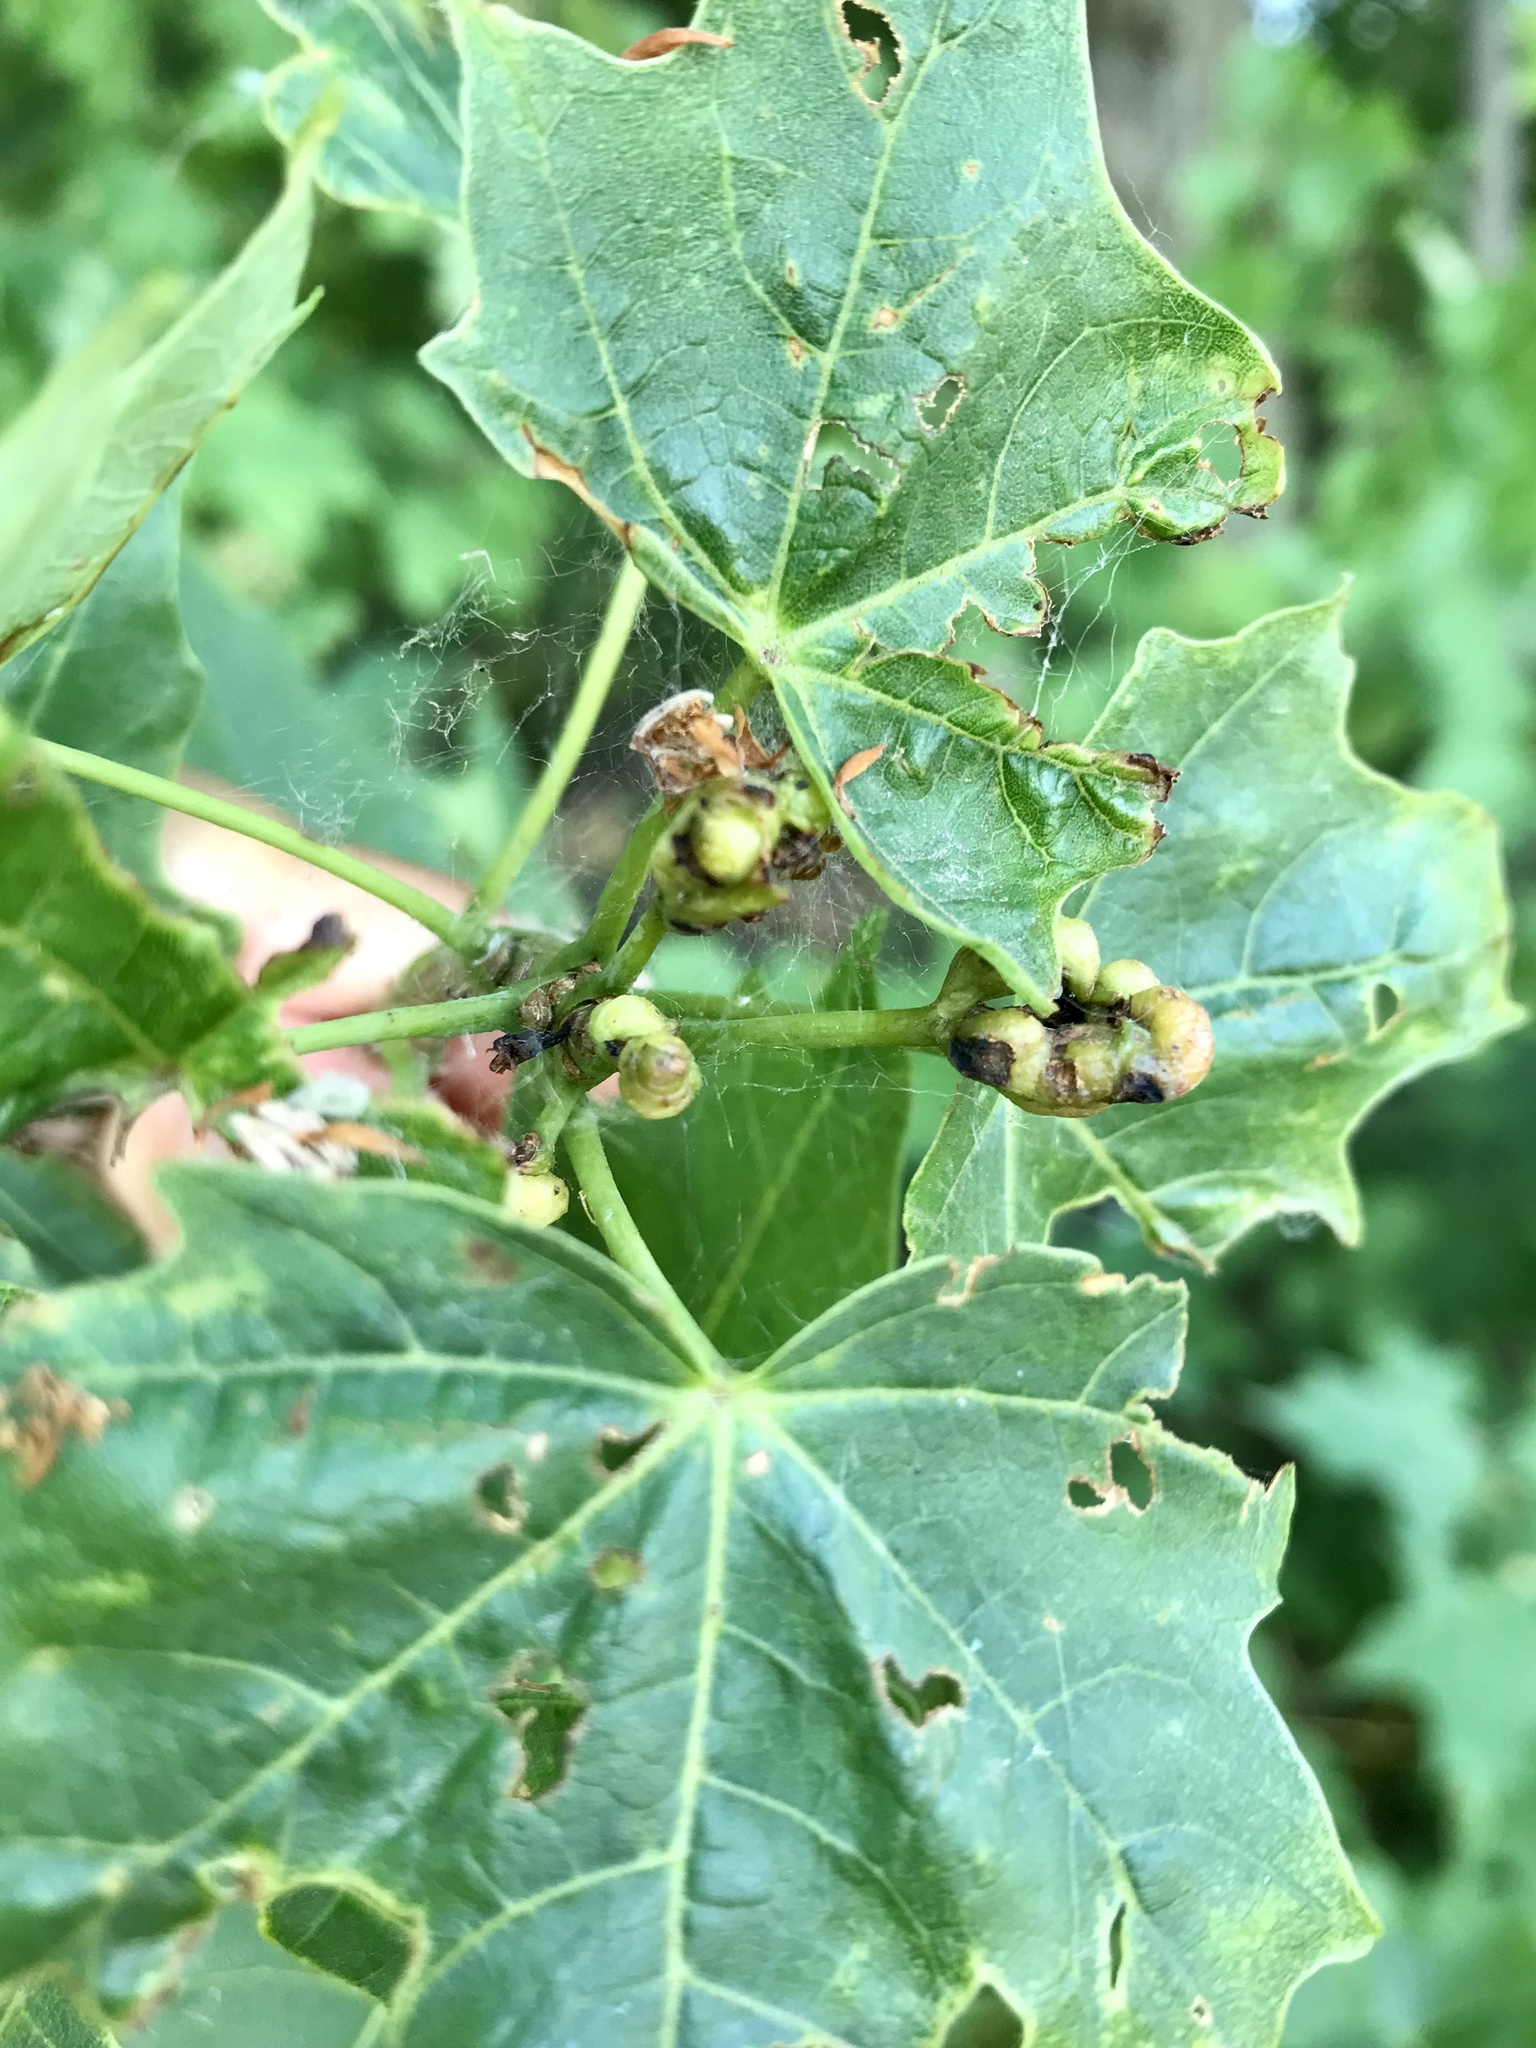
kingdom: Animalia
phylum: Arthropoda
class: Insecta
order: Diptera
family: Cecidomyiidae
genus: Dasineura
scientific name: Dasineura communis
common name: Gouty vein midge
